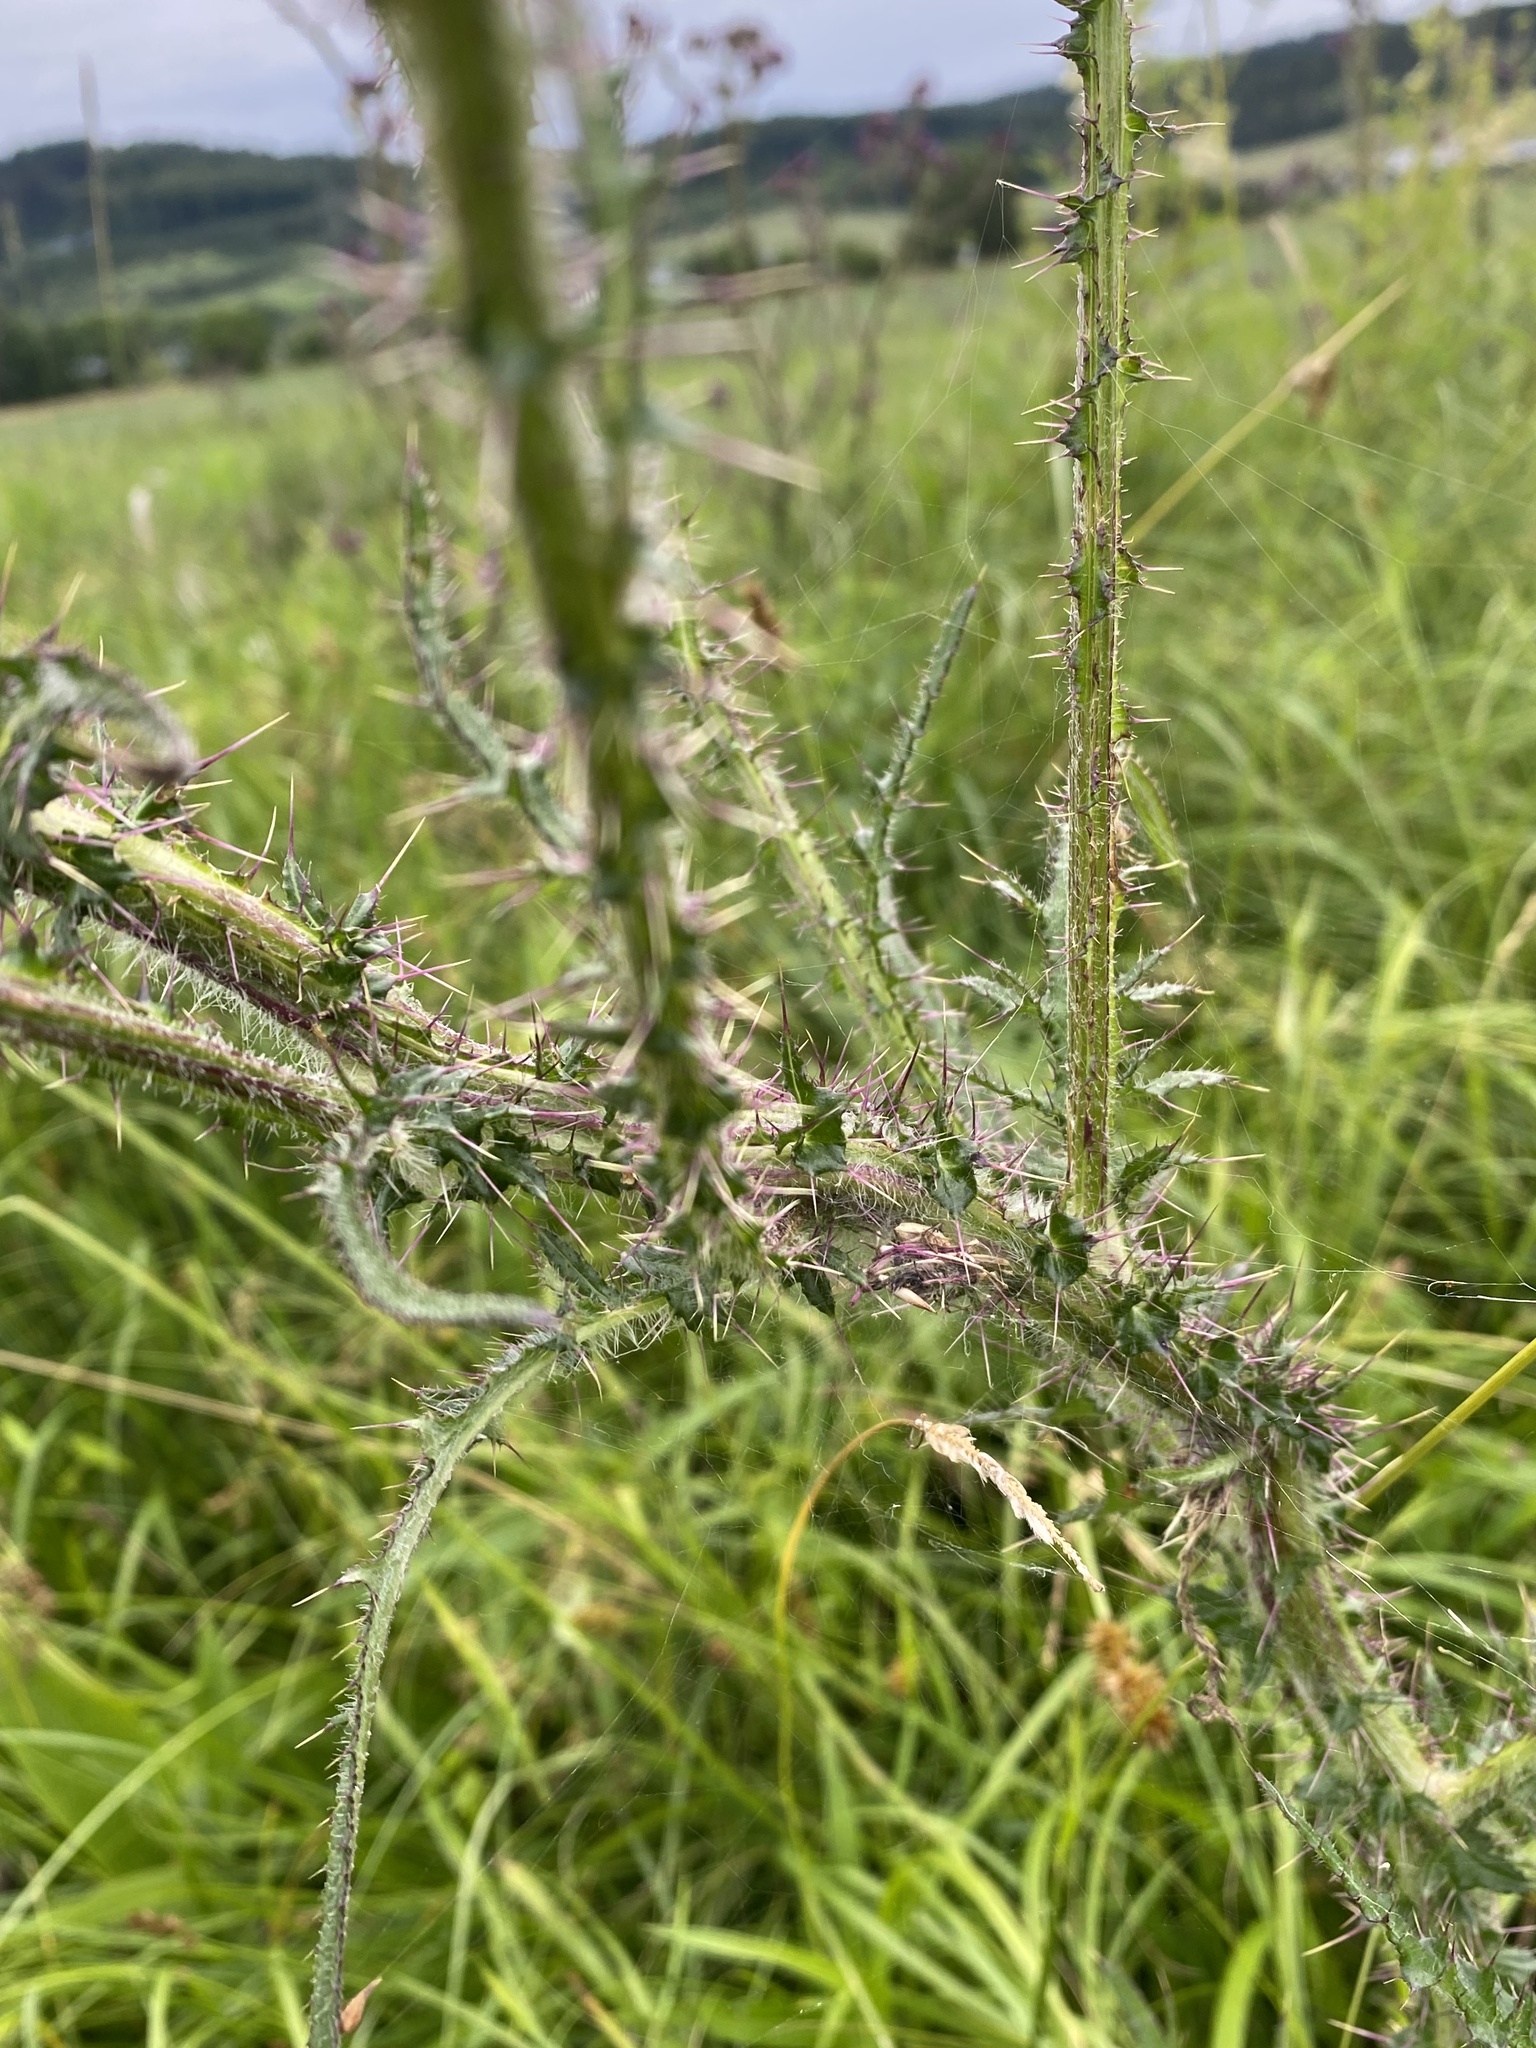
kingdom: Plantae
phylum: Tracheophyta
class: Magnoliopsida
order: Asterales
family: Asteraceae
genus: Cirsium
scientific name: Cirsium palustre
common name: Marsh thistle
